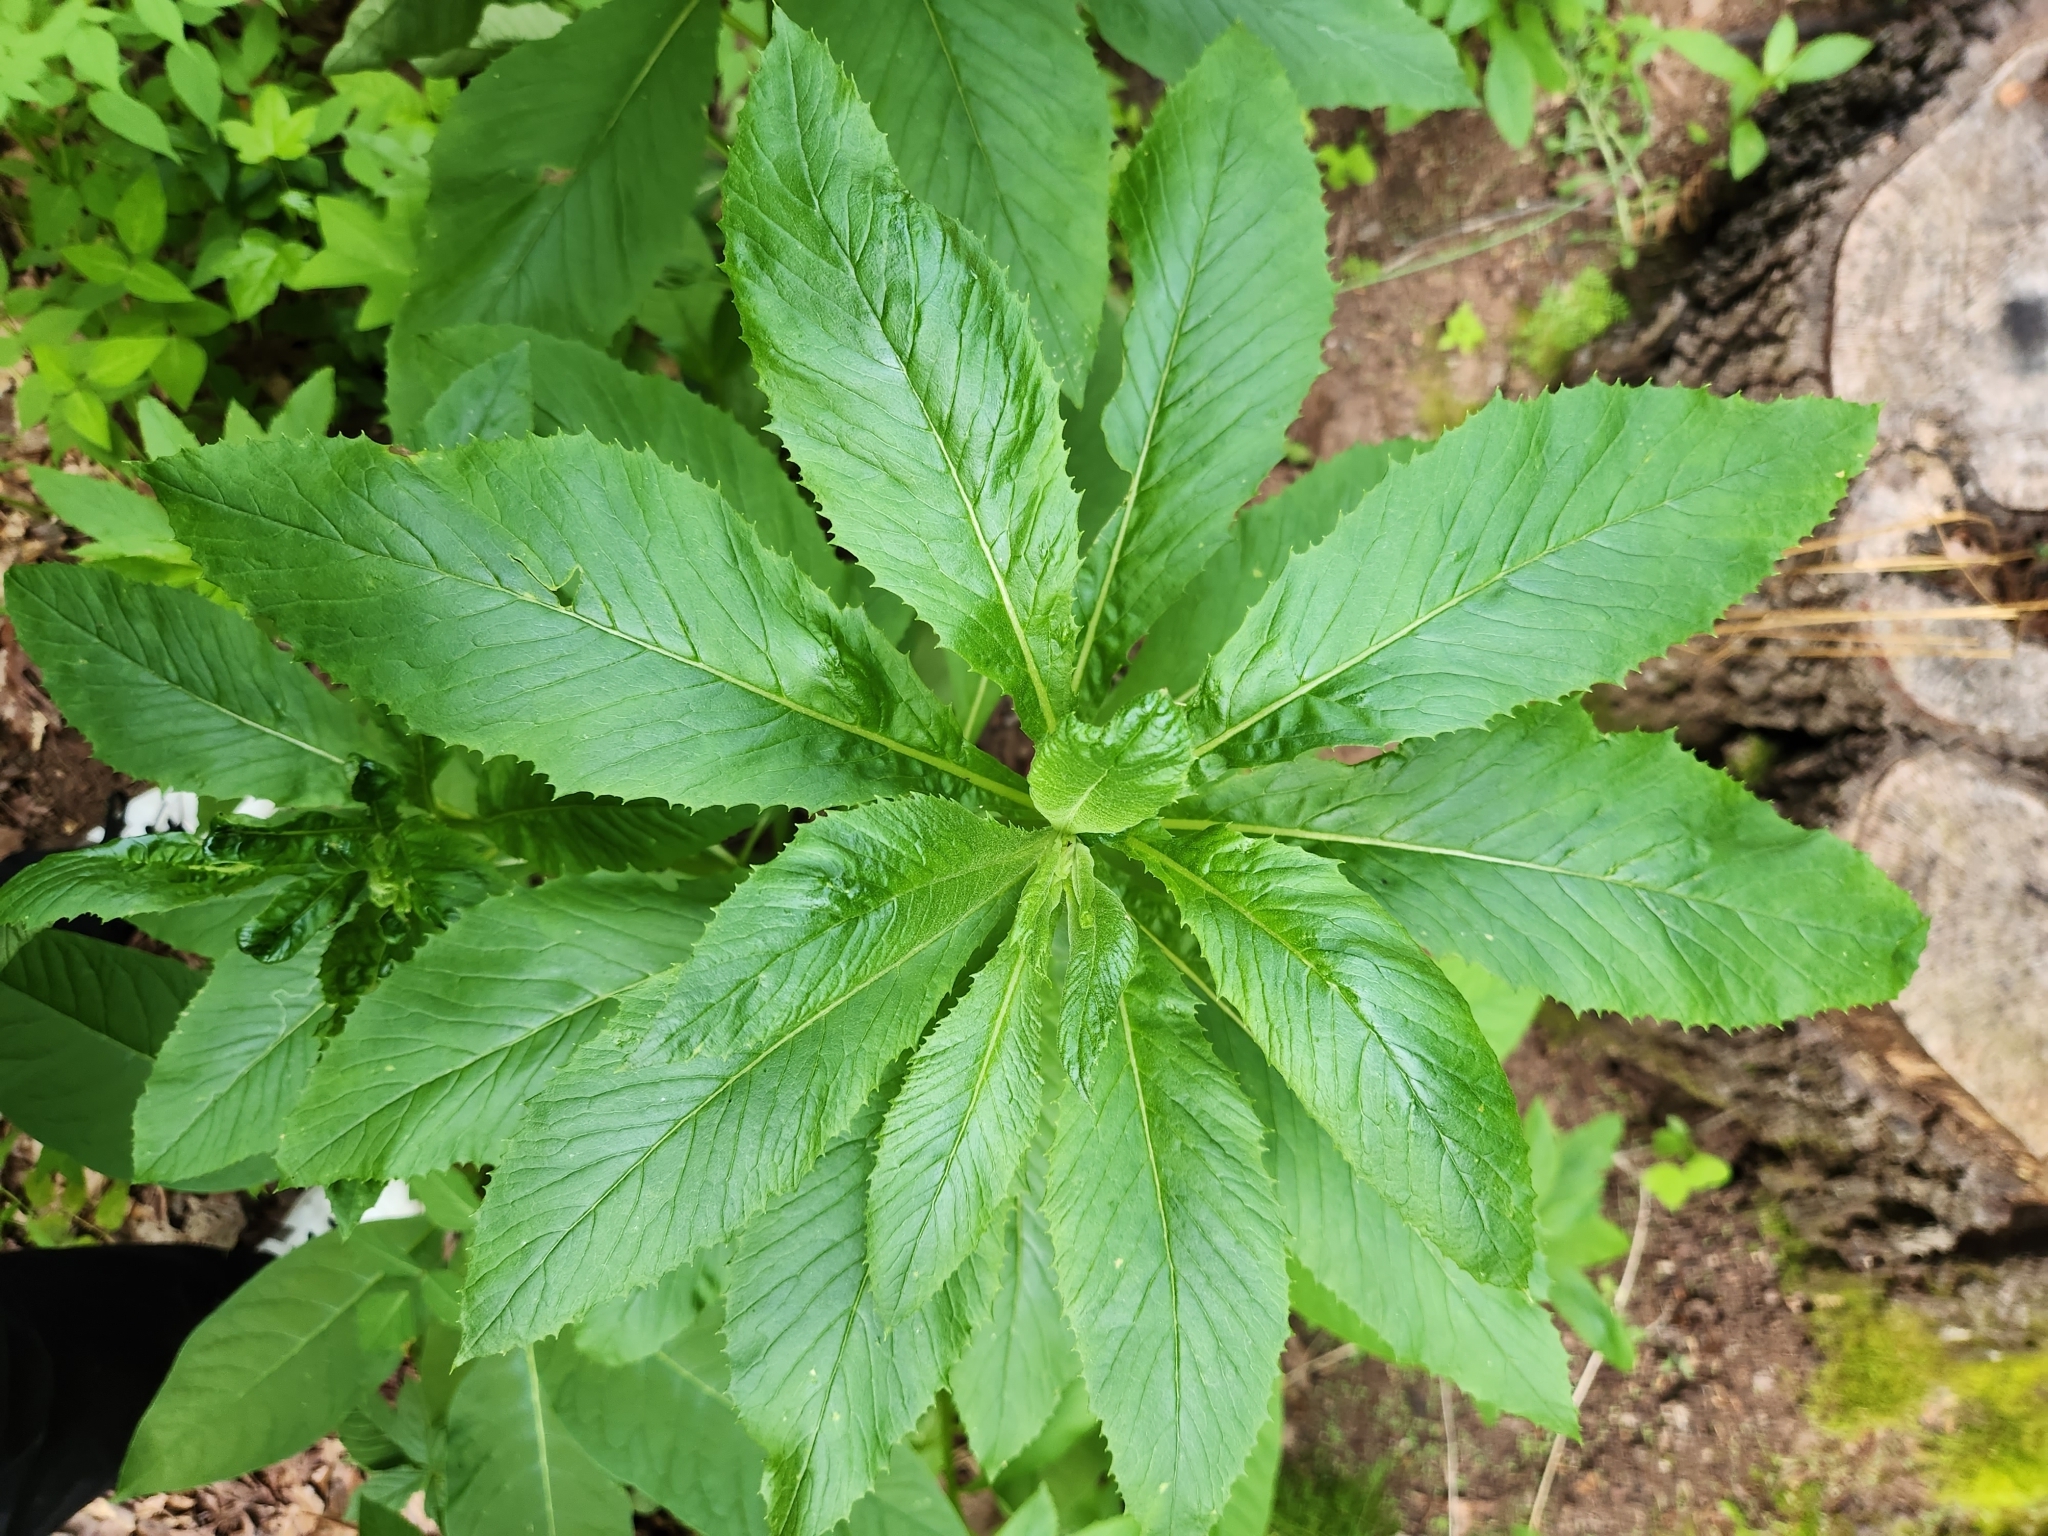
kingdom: Plantae
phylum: Tracheophyta
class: Magnoliopsida
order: Asterales
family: Asteraceae
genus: Erechtites
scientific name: Erechtites hieraciifolius
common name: American burnweed
